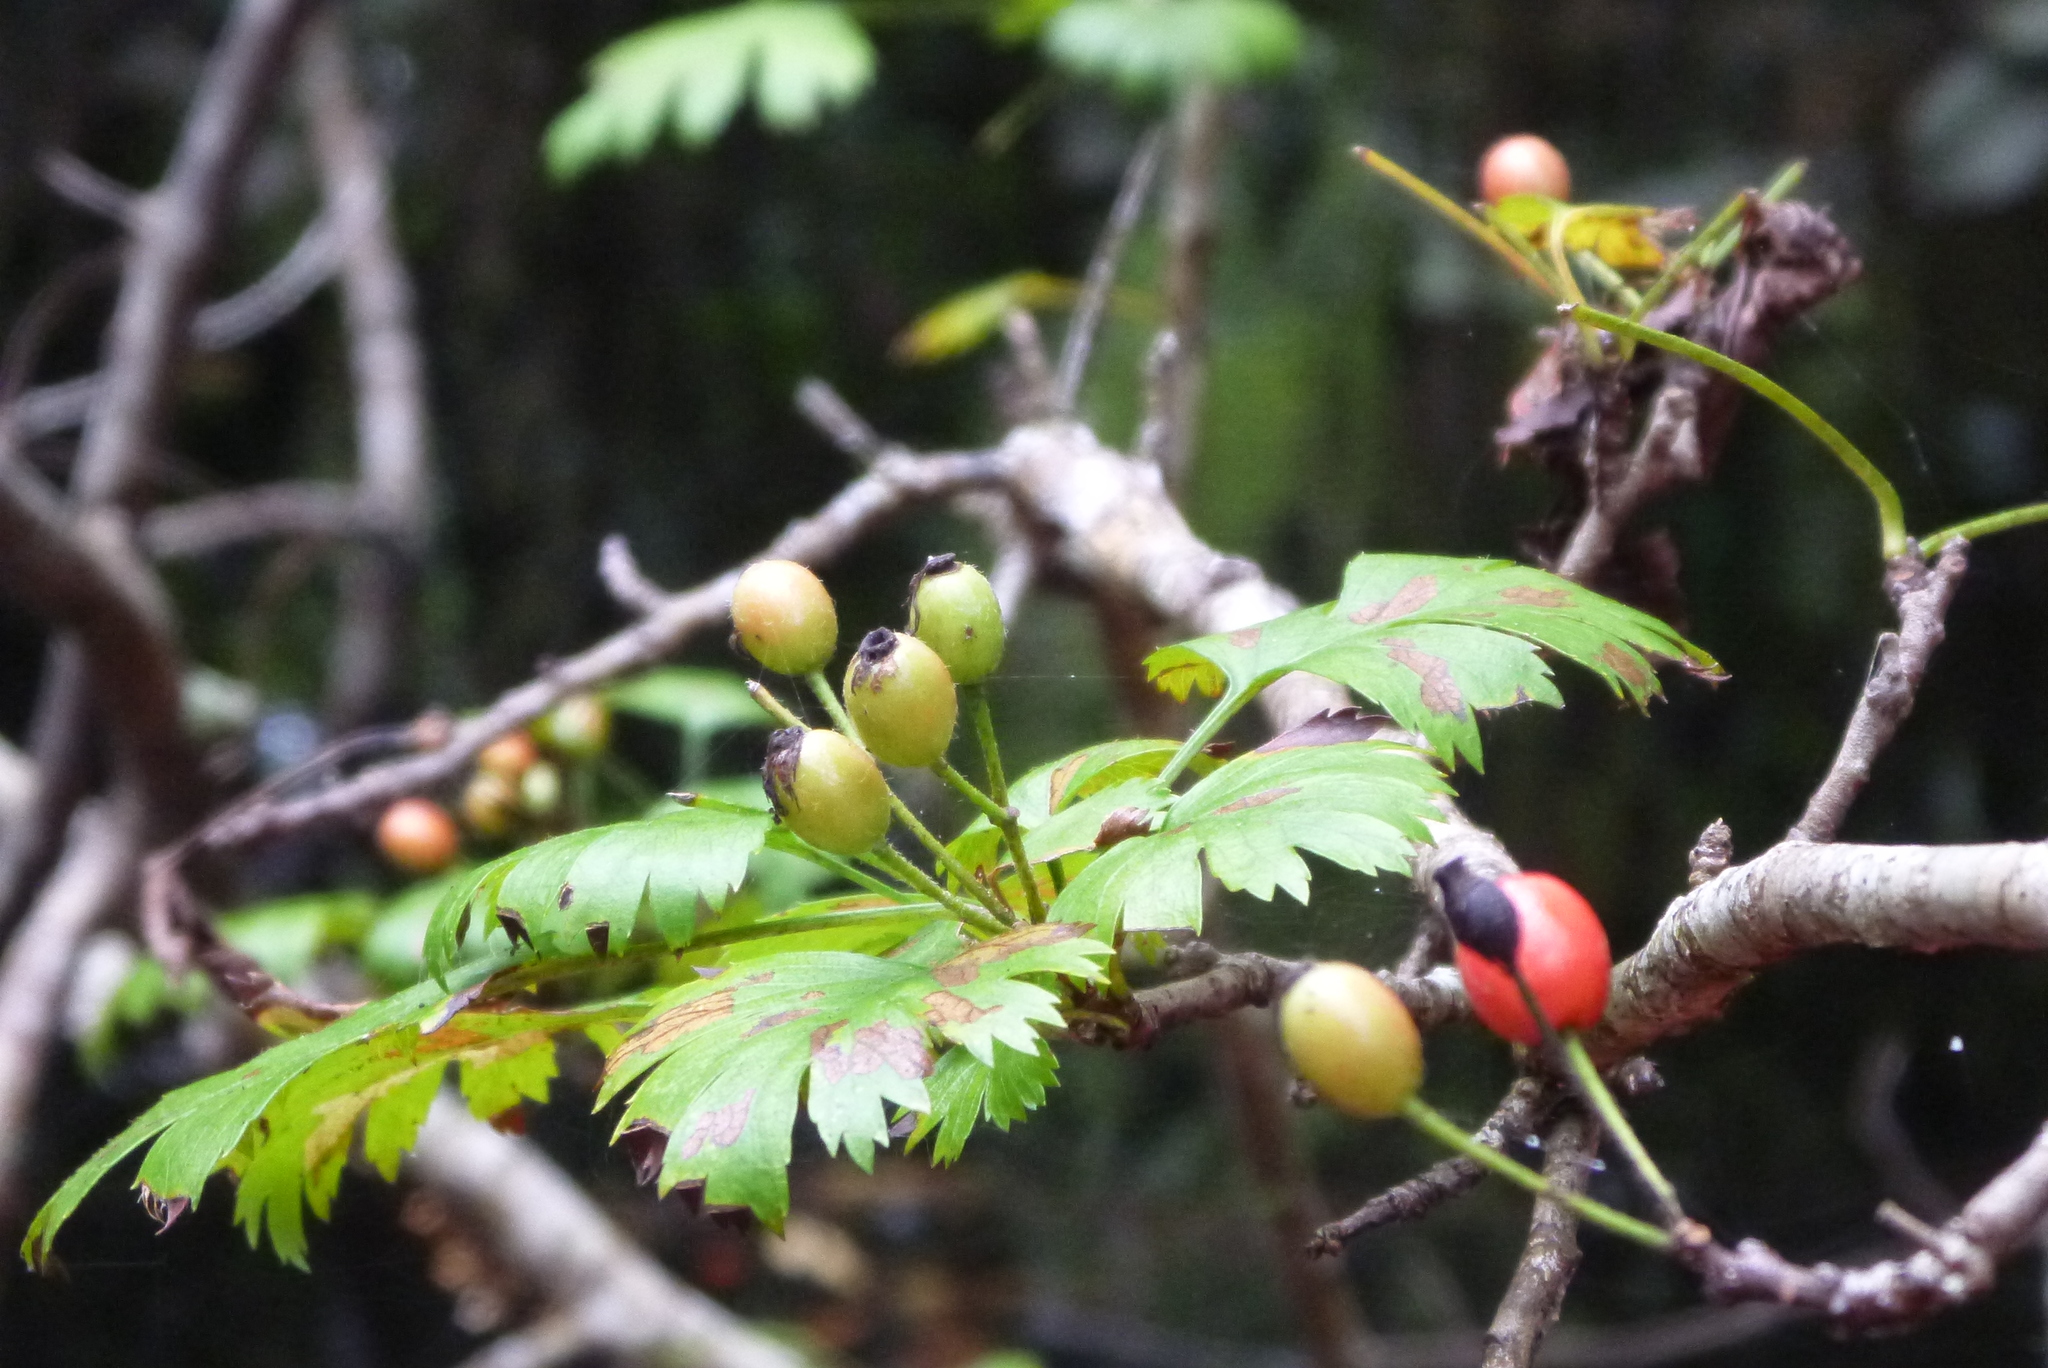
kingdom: Plantae
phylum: Tracheophyta
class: Magnoliopsida
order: Rosales
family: Rosaceae
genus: Crataegus
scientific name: Crataegus marshallii
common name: Parsley-hawthorn
